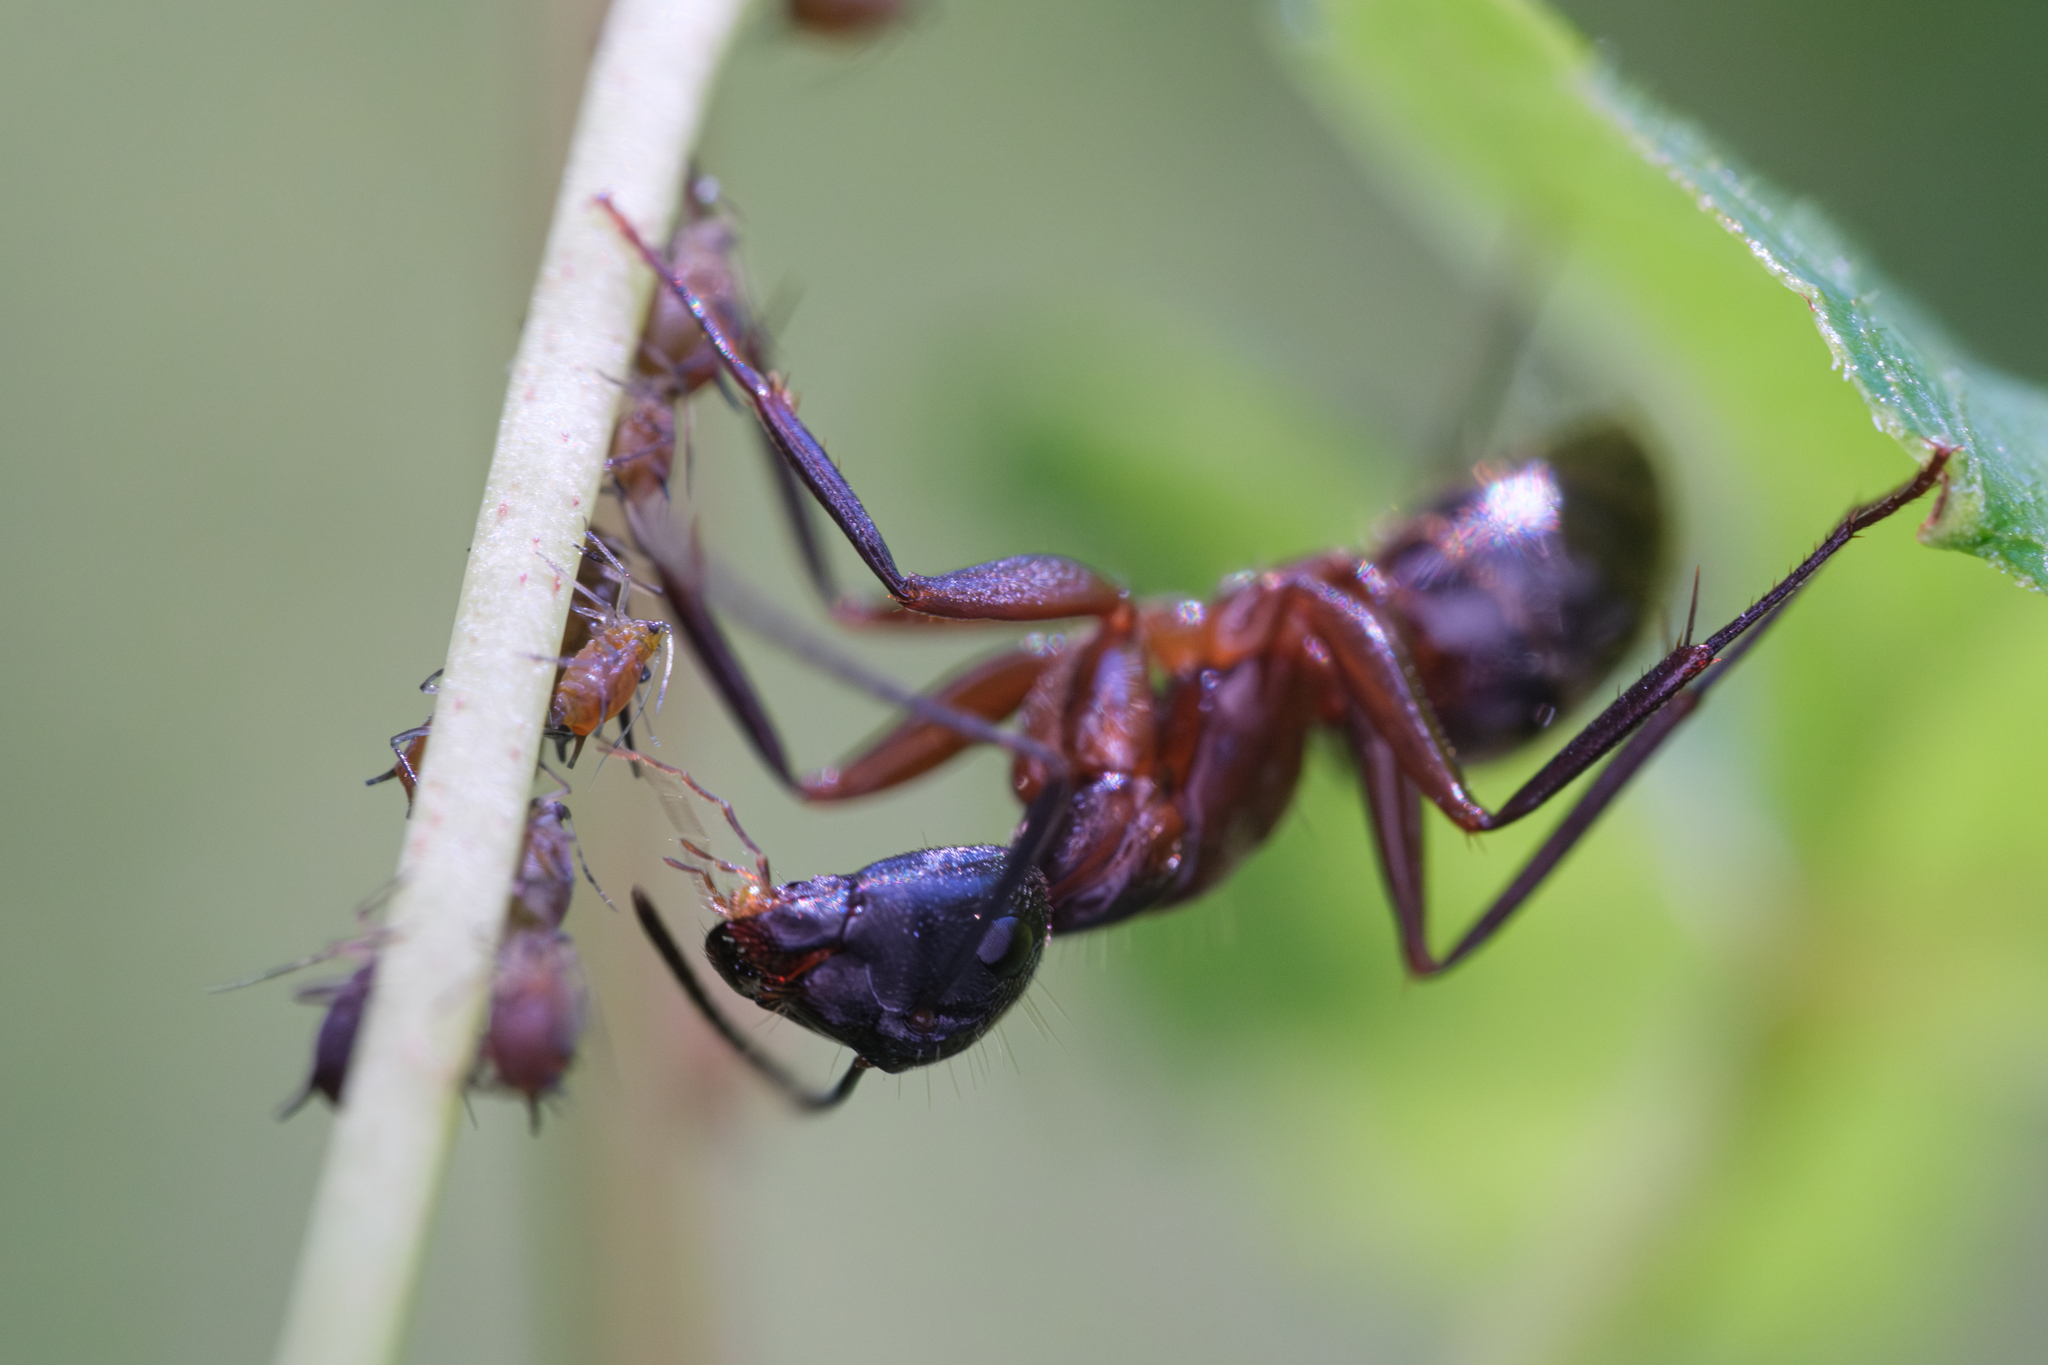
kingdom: Animalia
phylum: Arthropoda
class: Insecta
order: Hymenoptera
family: Formicidae
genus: Camponotus
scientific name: Camponotus chromaiodes
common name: Red carpenter ant
